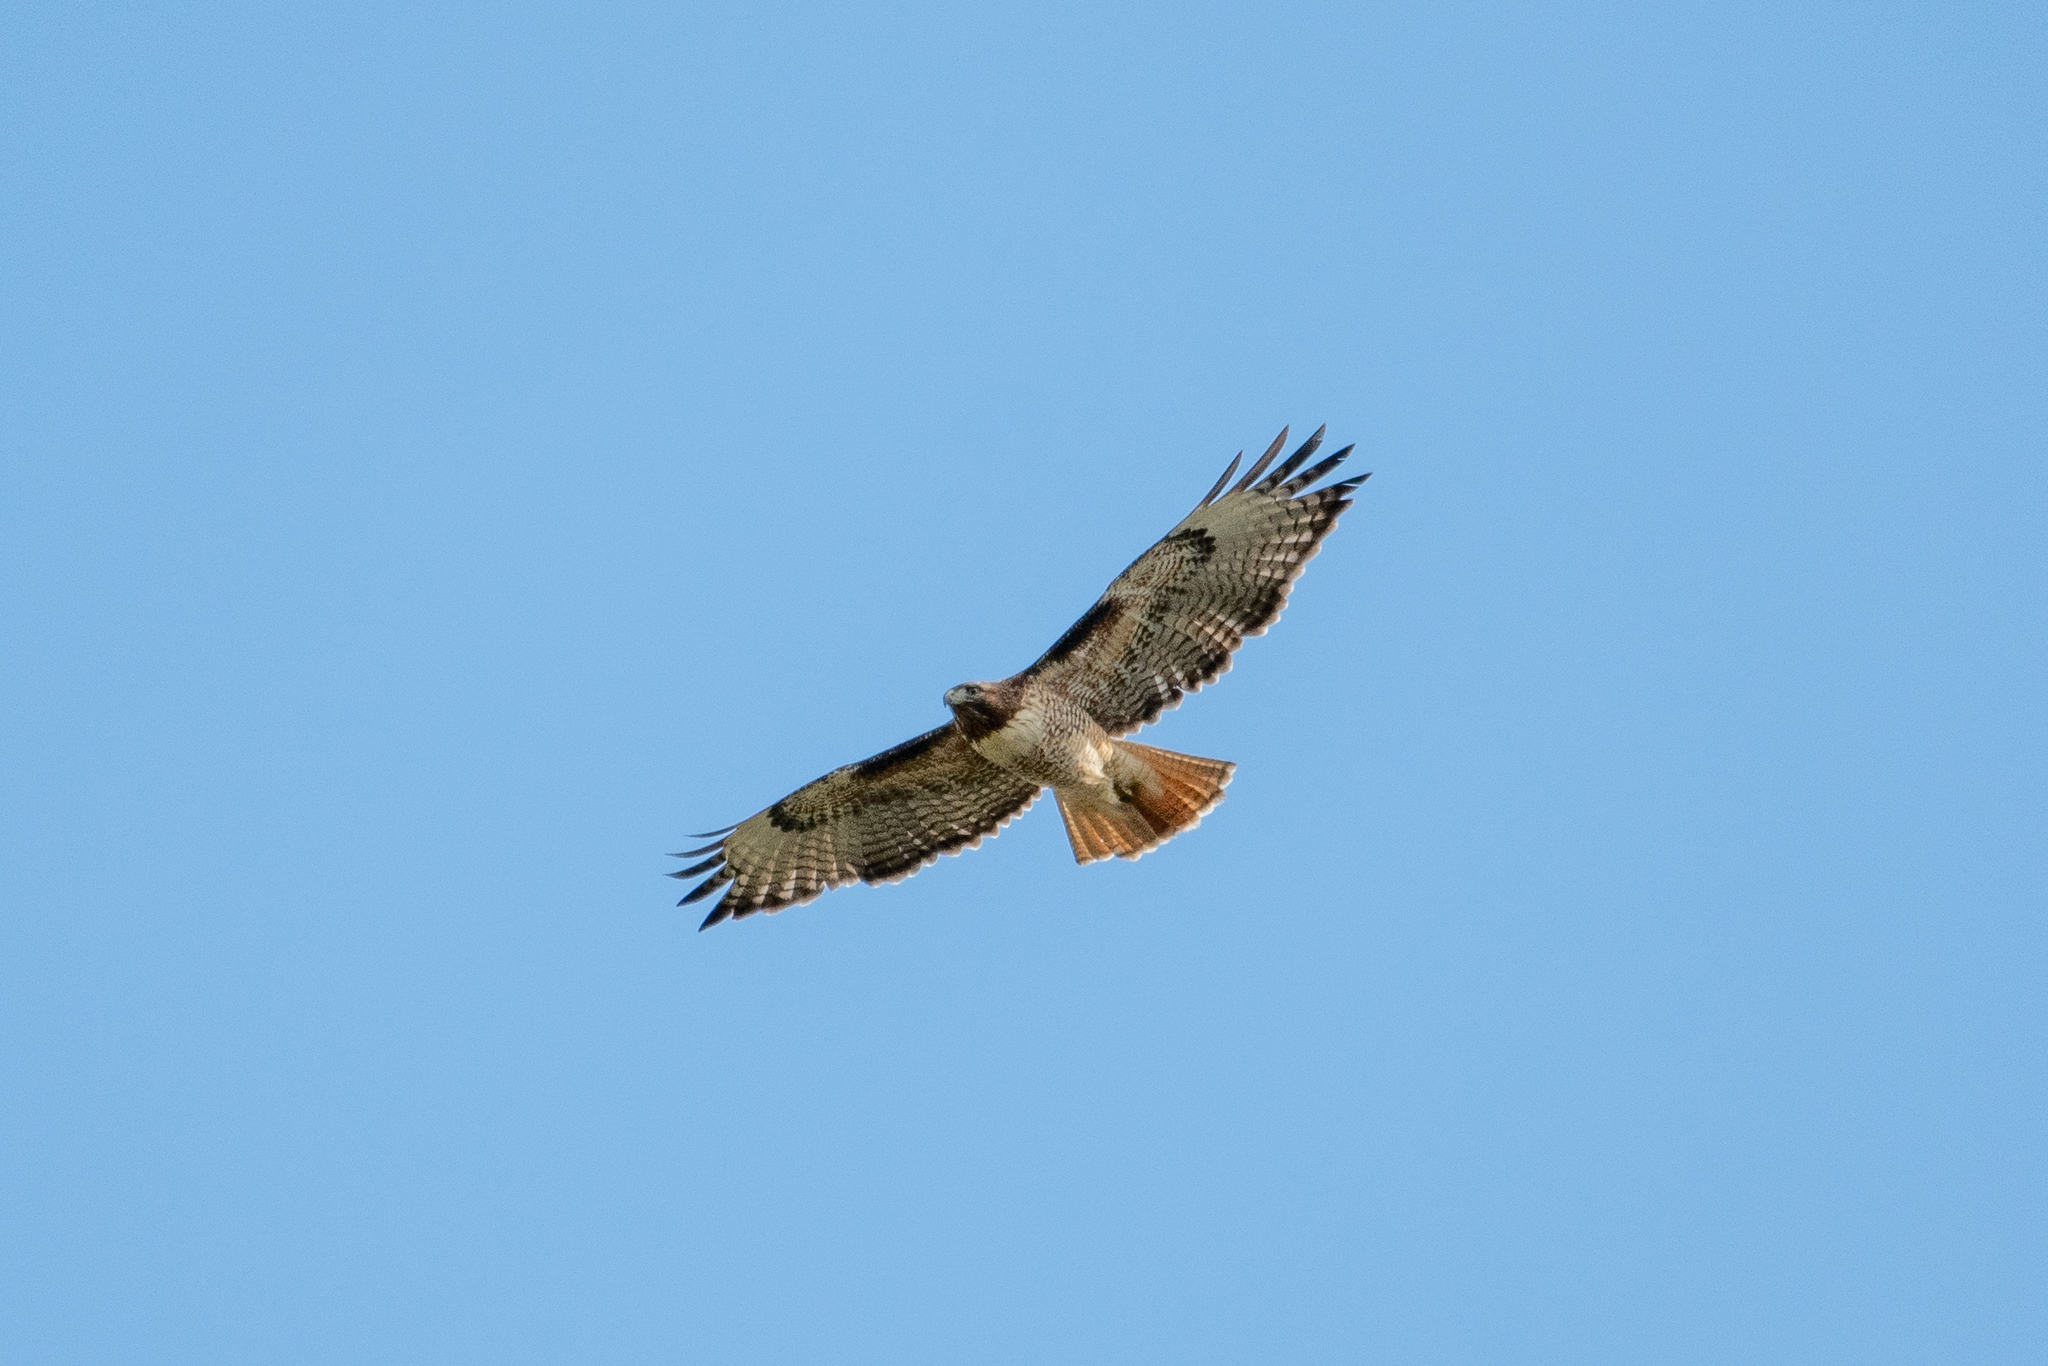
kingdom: Animalia
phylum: Chordata
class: Aves
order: Accipitriformes
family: Accipitridae
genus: Buteo
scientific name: Buteo jamaicensis
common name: Red-tailed hawk
